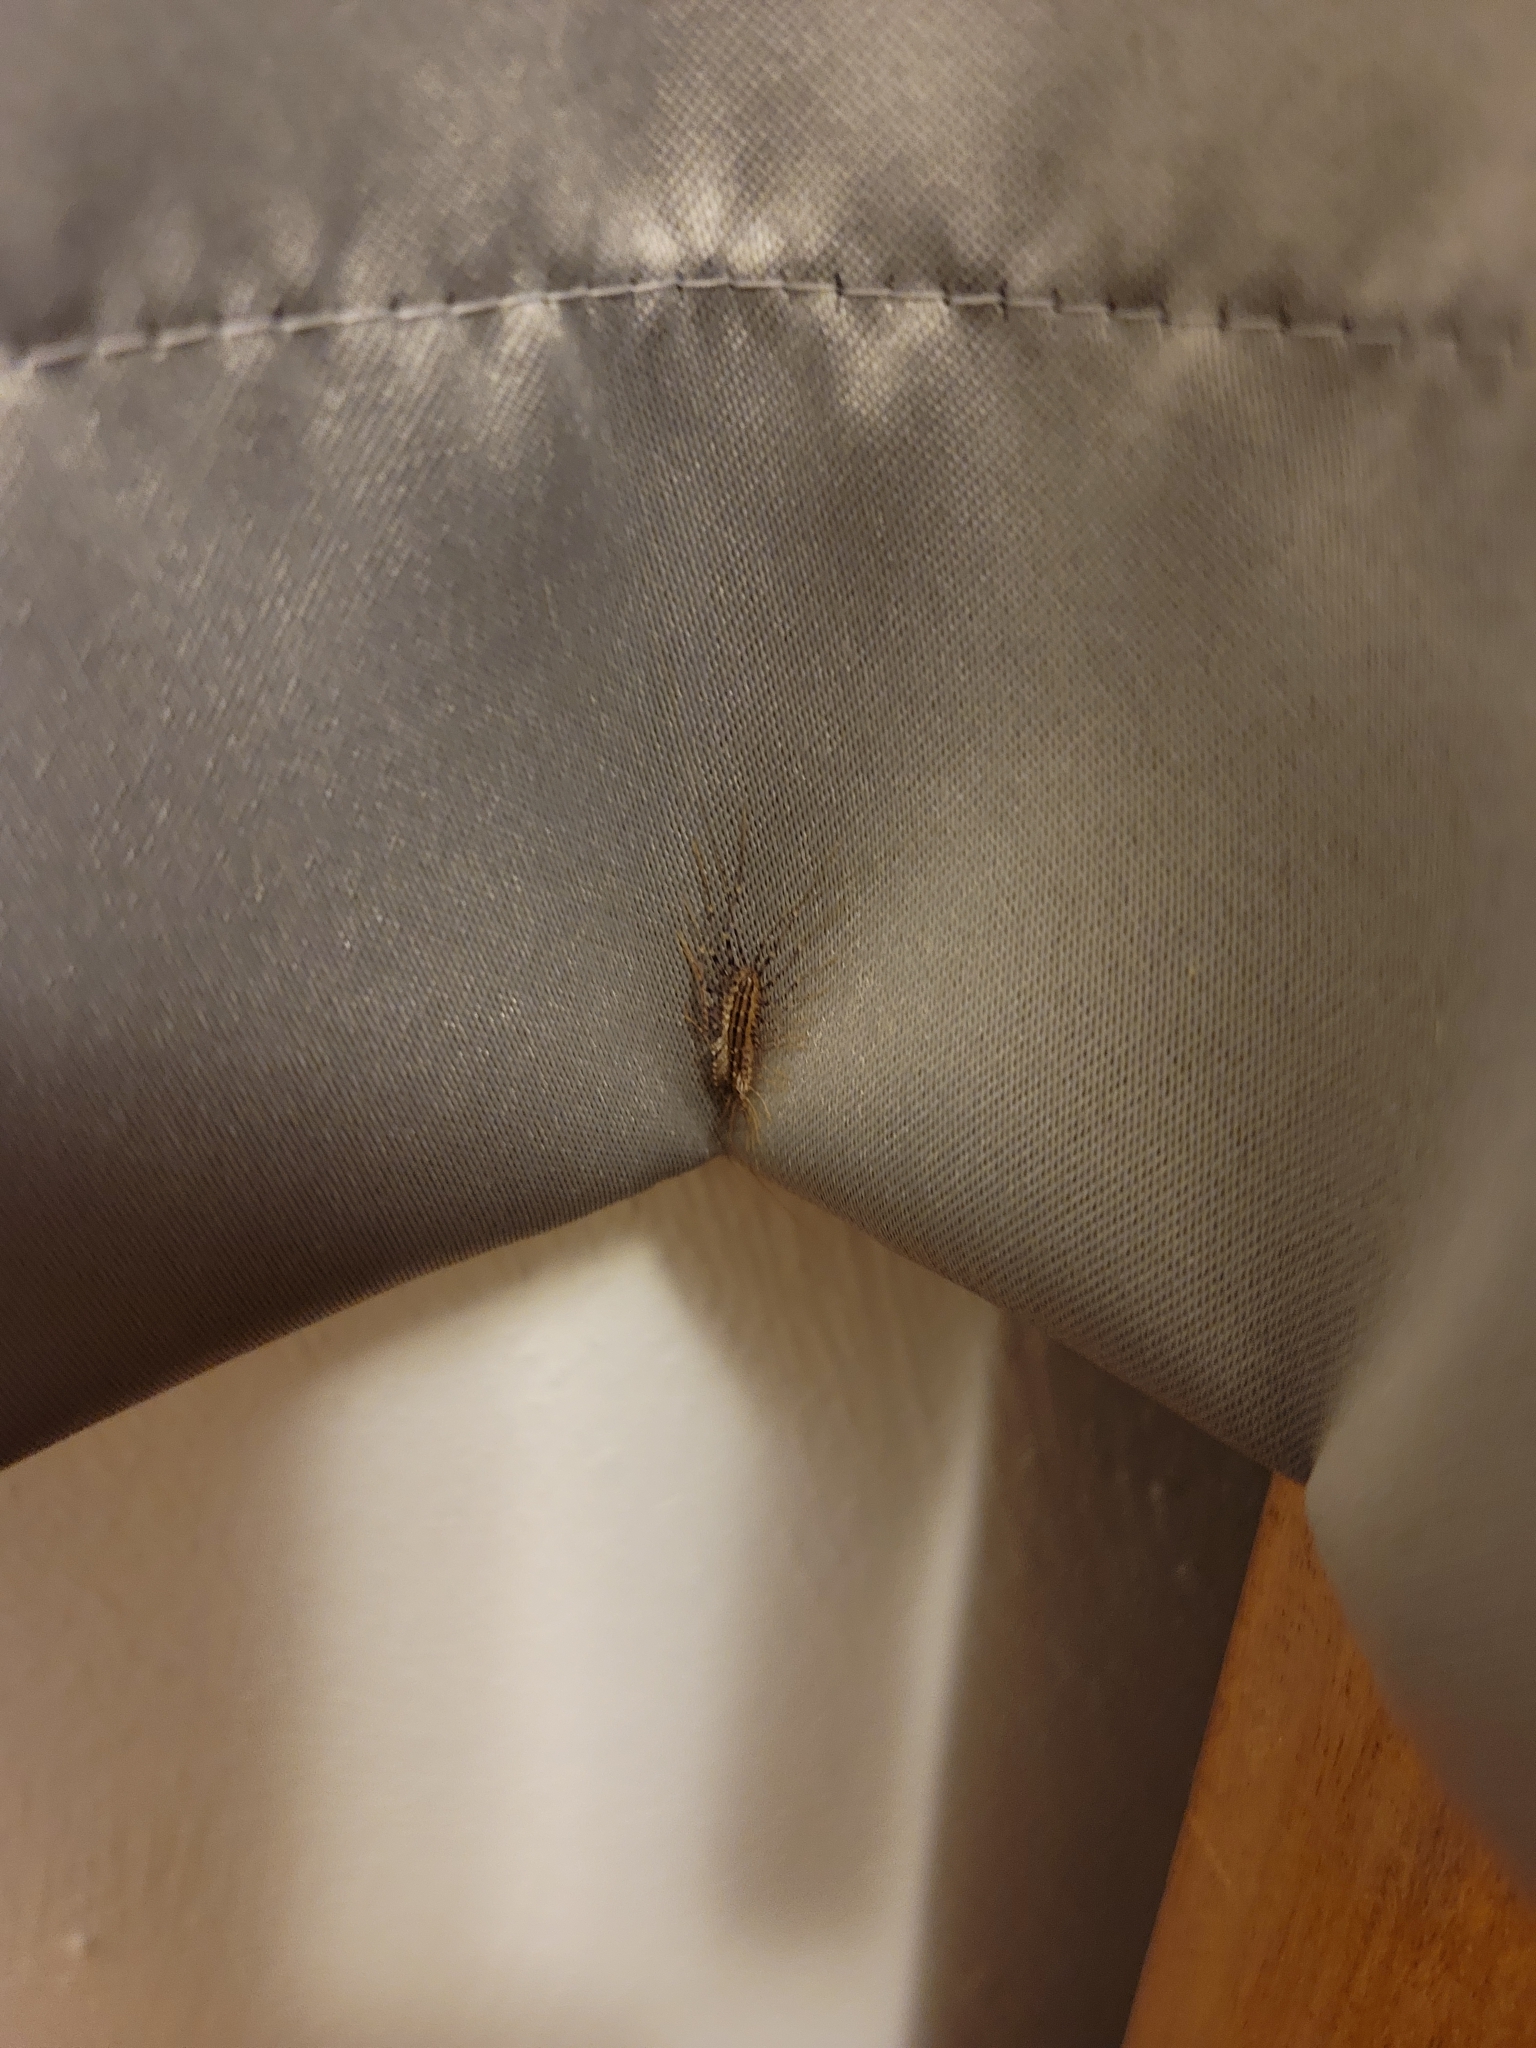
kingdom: Animalia
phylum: Arthropoda
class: Chilopoda
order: Scutigeromorpha
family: Scutigeridae
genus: Scutigera
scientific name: Scutigera coleoptrata
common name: House centipede
